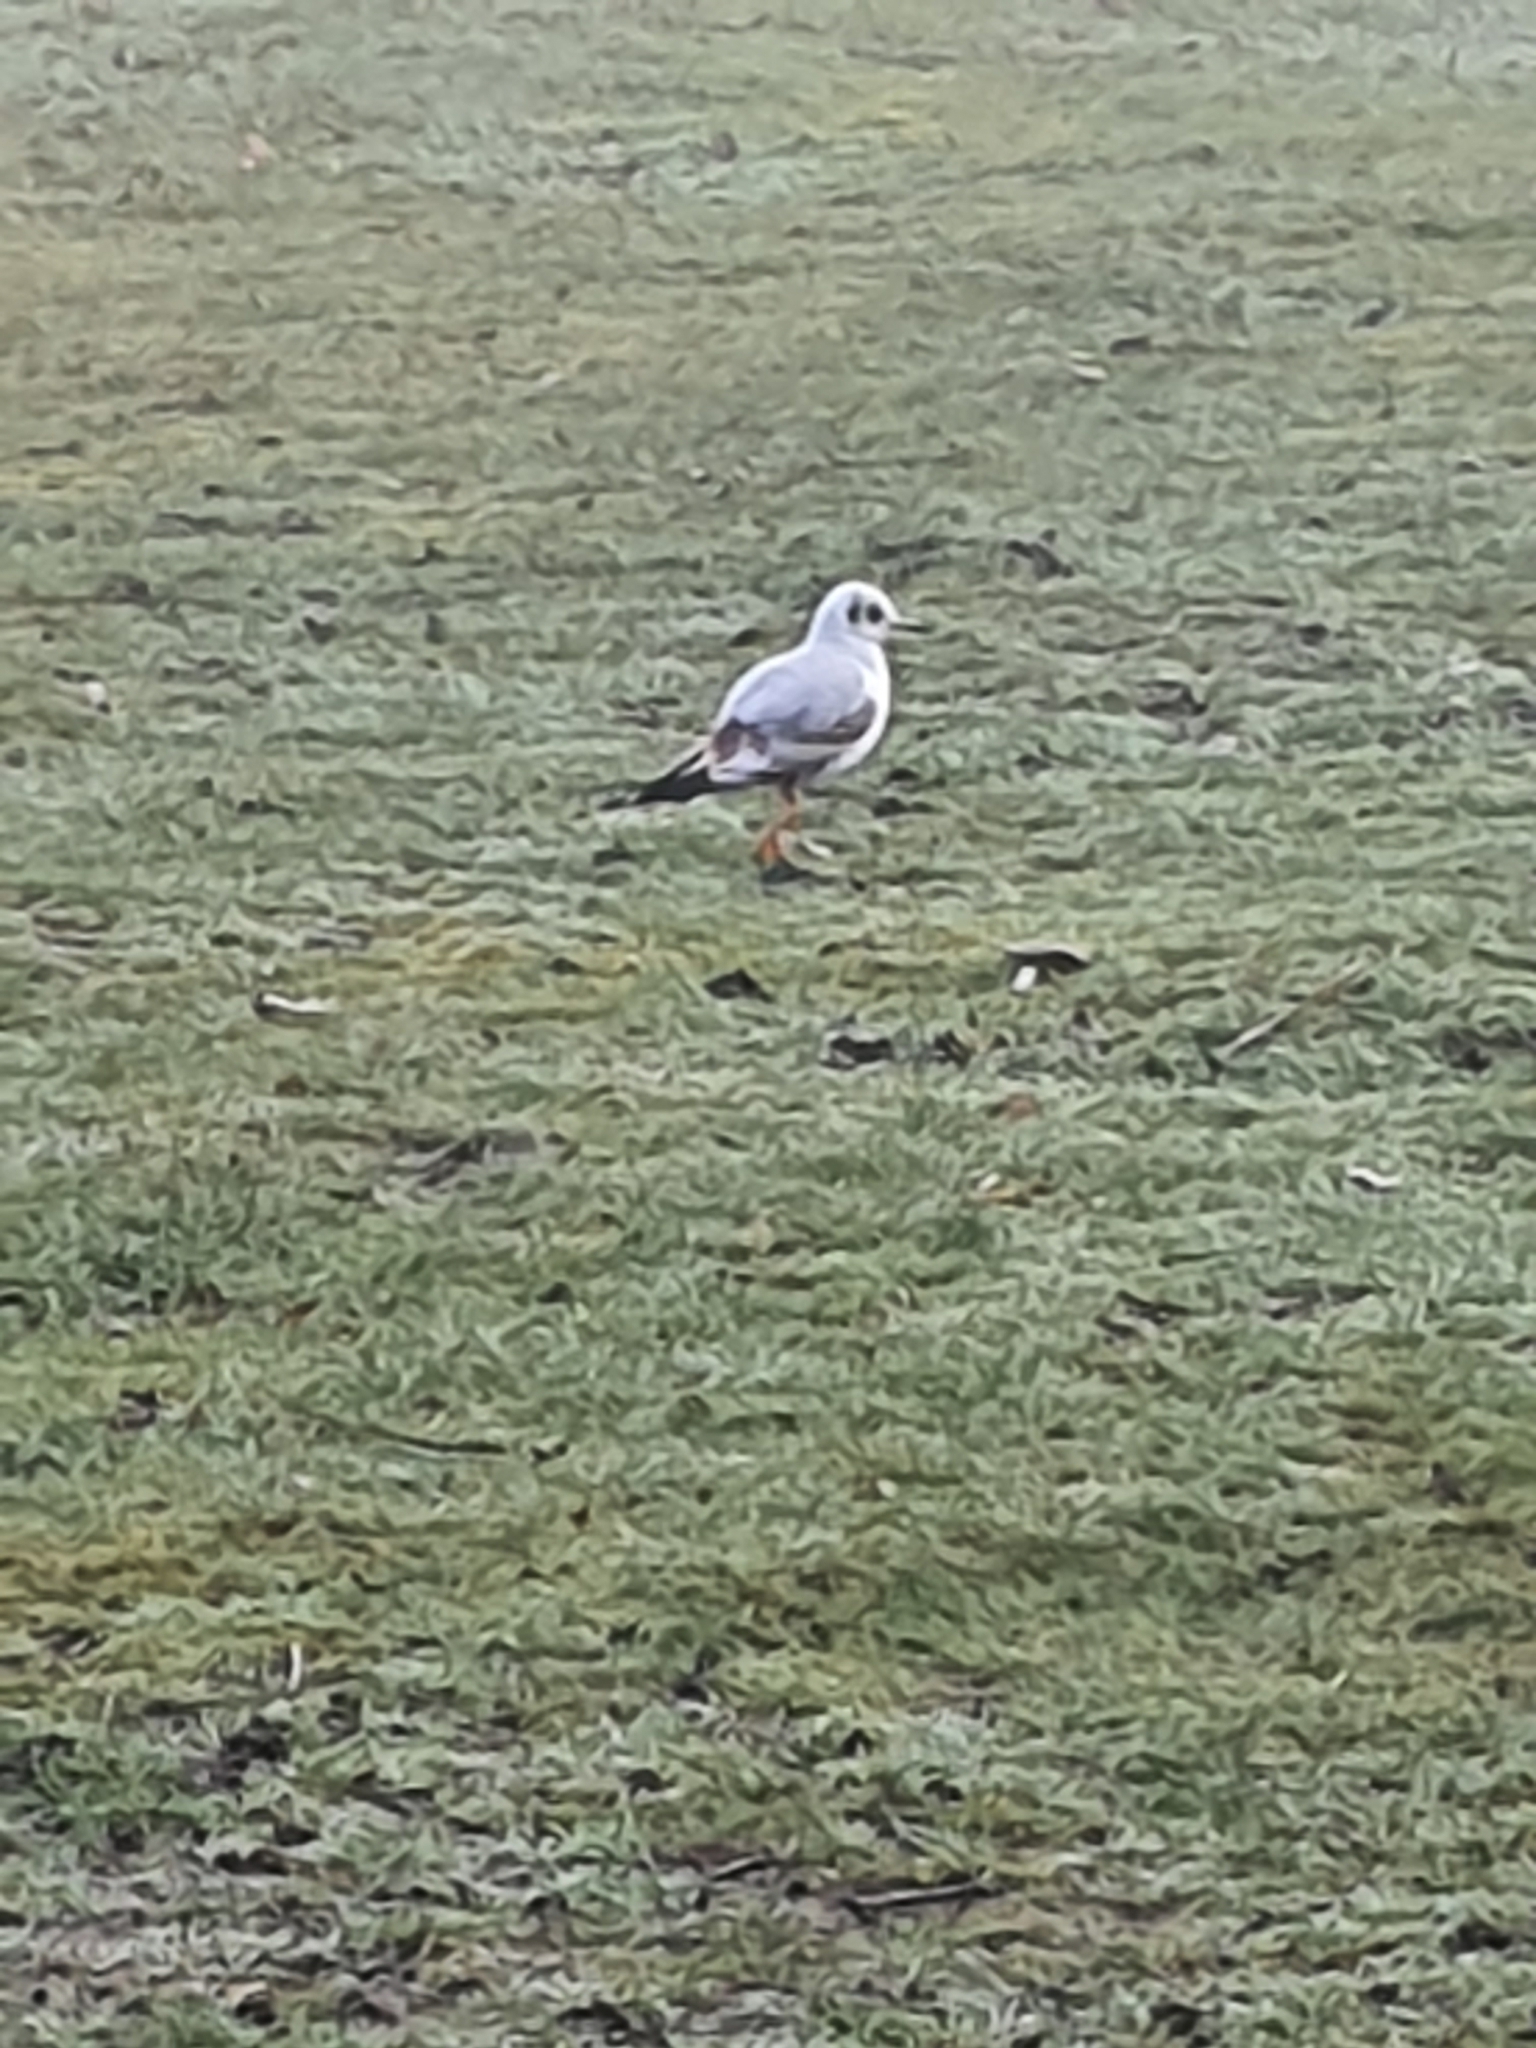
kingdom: Animalia
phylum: Chordata
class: Aves
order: Charadriiformes
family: Laridae
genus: Chroicocephalus
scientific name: Chroicocephalus ridibundus
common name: Black-headed gull
